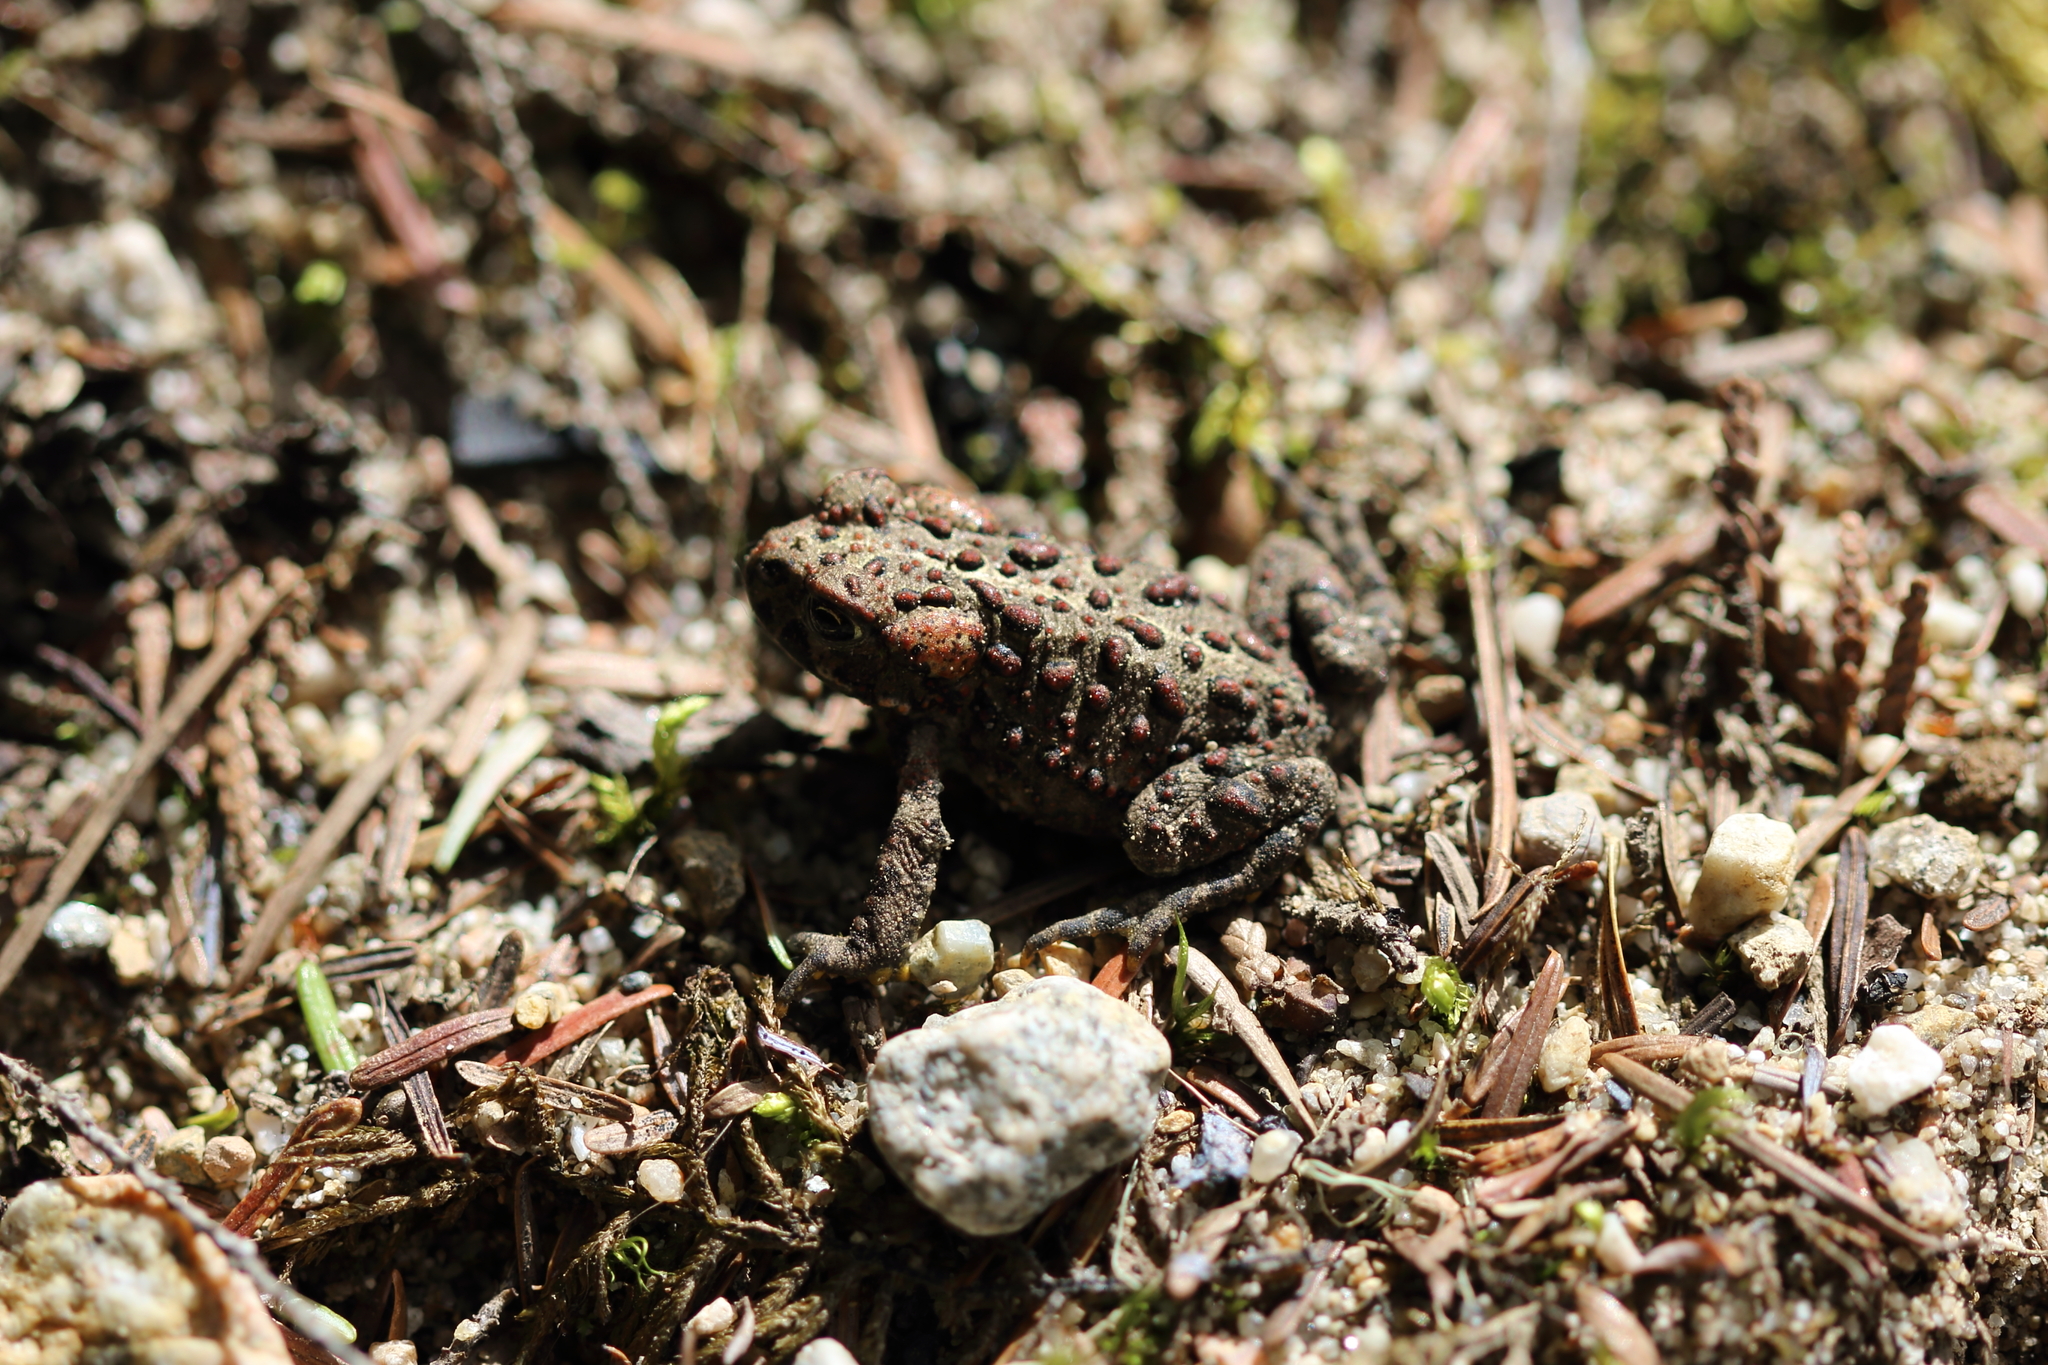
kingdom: Animalia
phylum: Chordata
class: Amphibia
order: Anura
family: Bufonidae
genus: Anaxyrus
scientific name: Anaxyrus boreas
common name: Western toad
